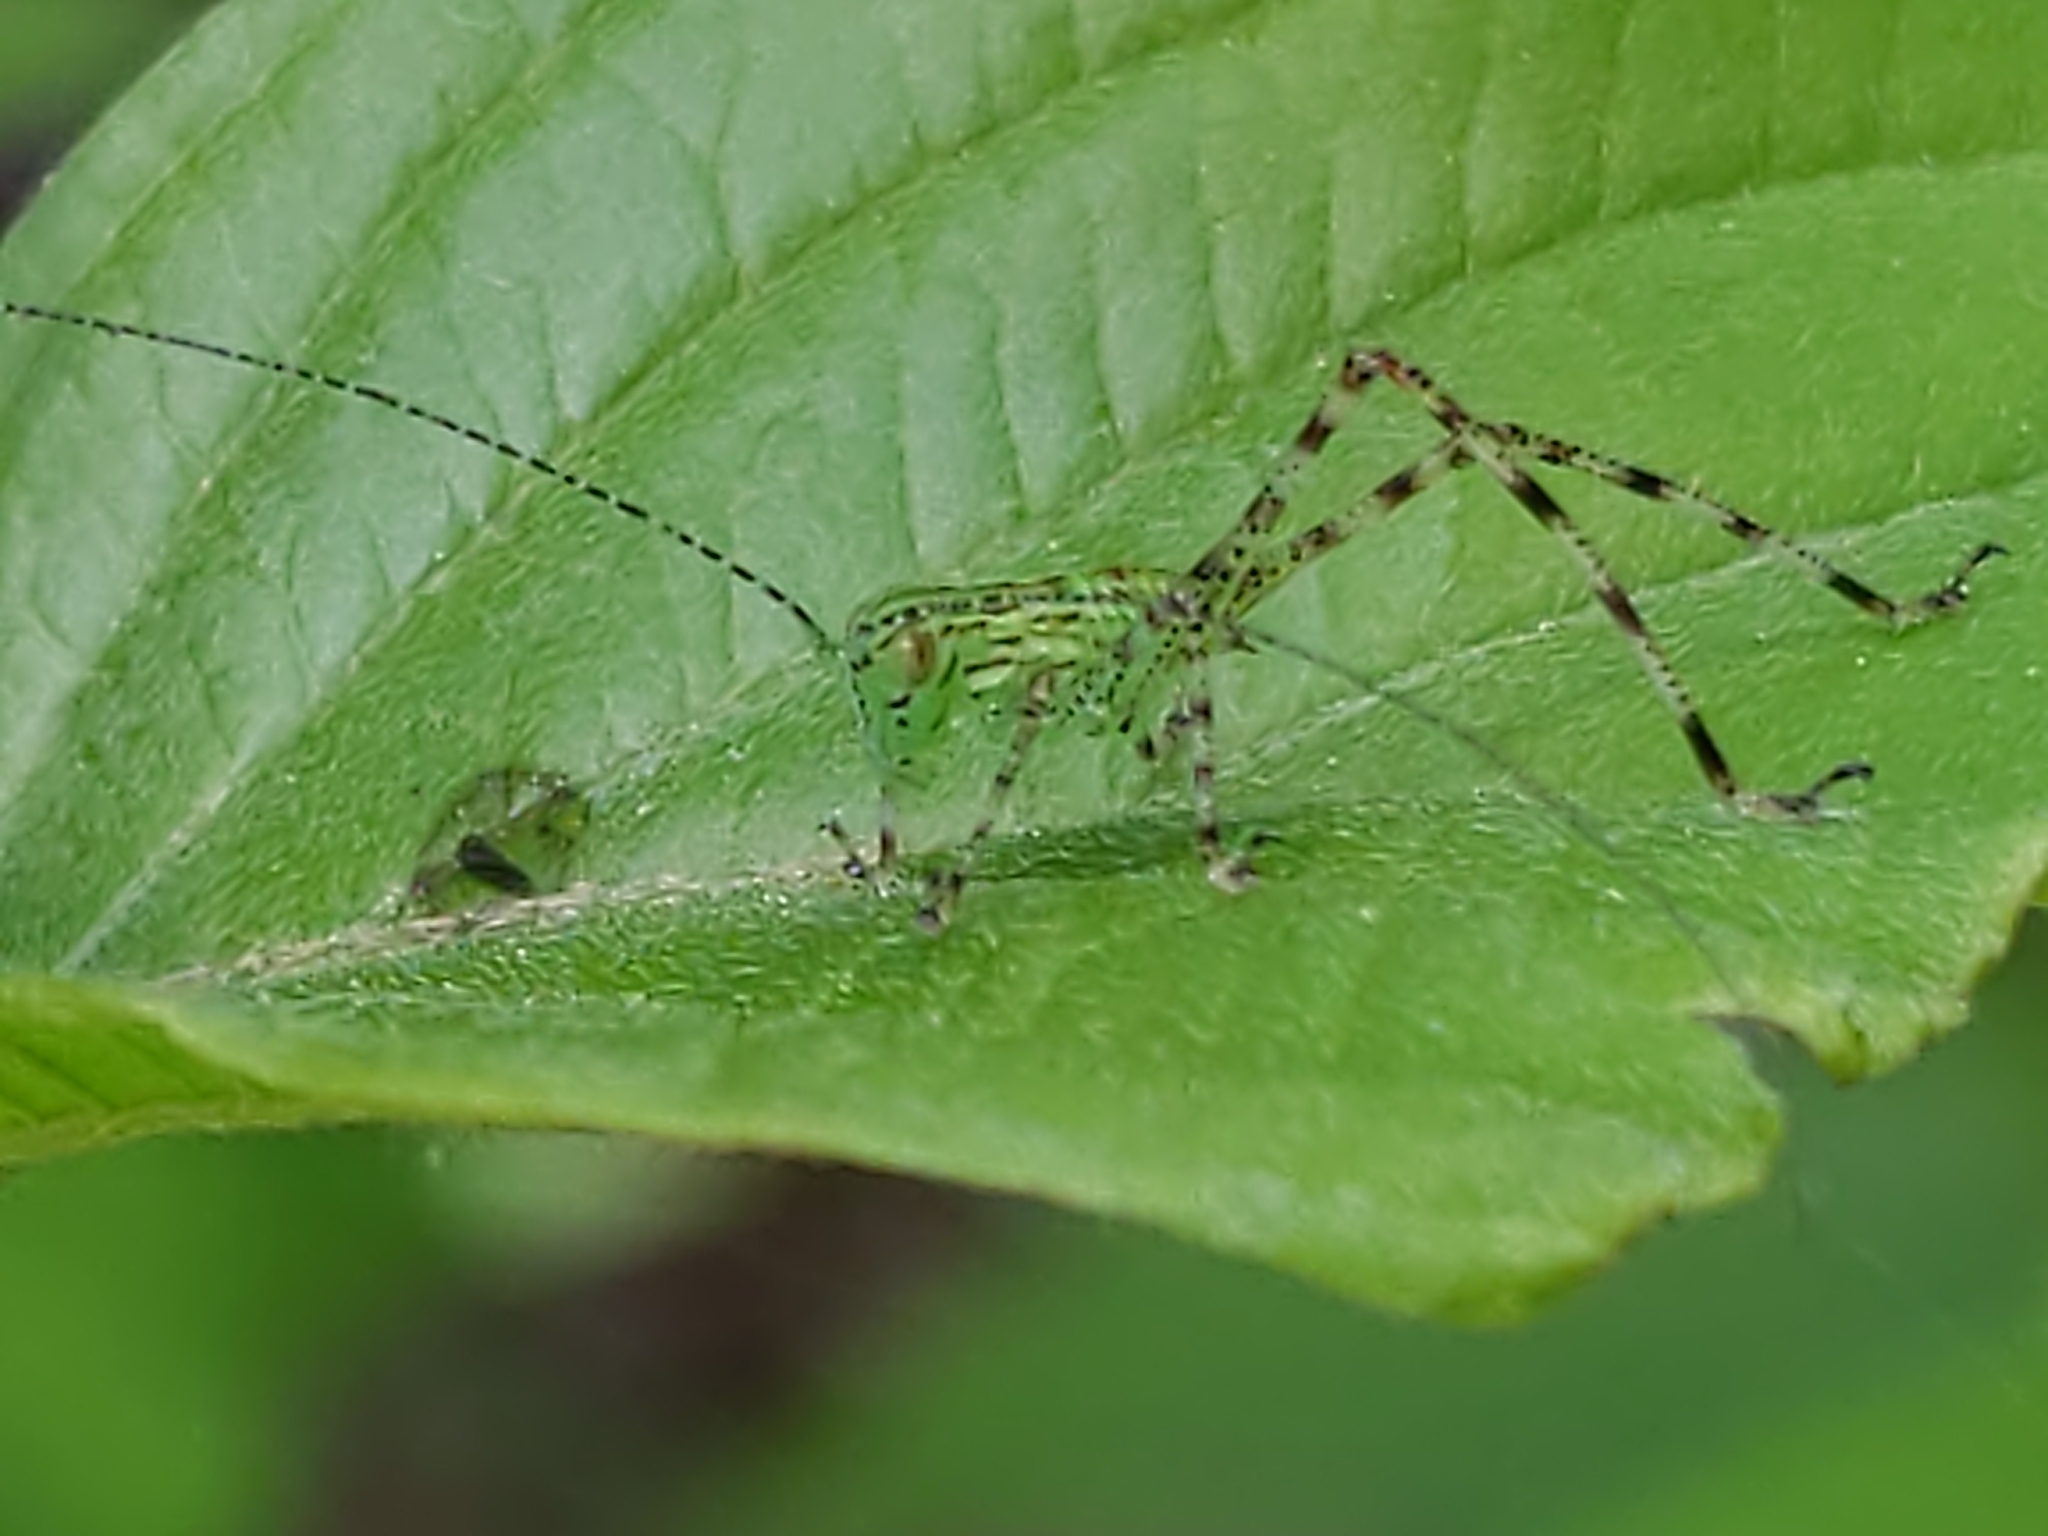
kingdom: Animalia
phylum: Arthropoda
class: Insecta
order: Orthoptera
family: Tettigoniidae
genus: Microcentrum
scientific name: Microcentrum
